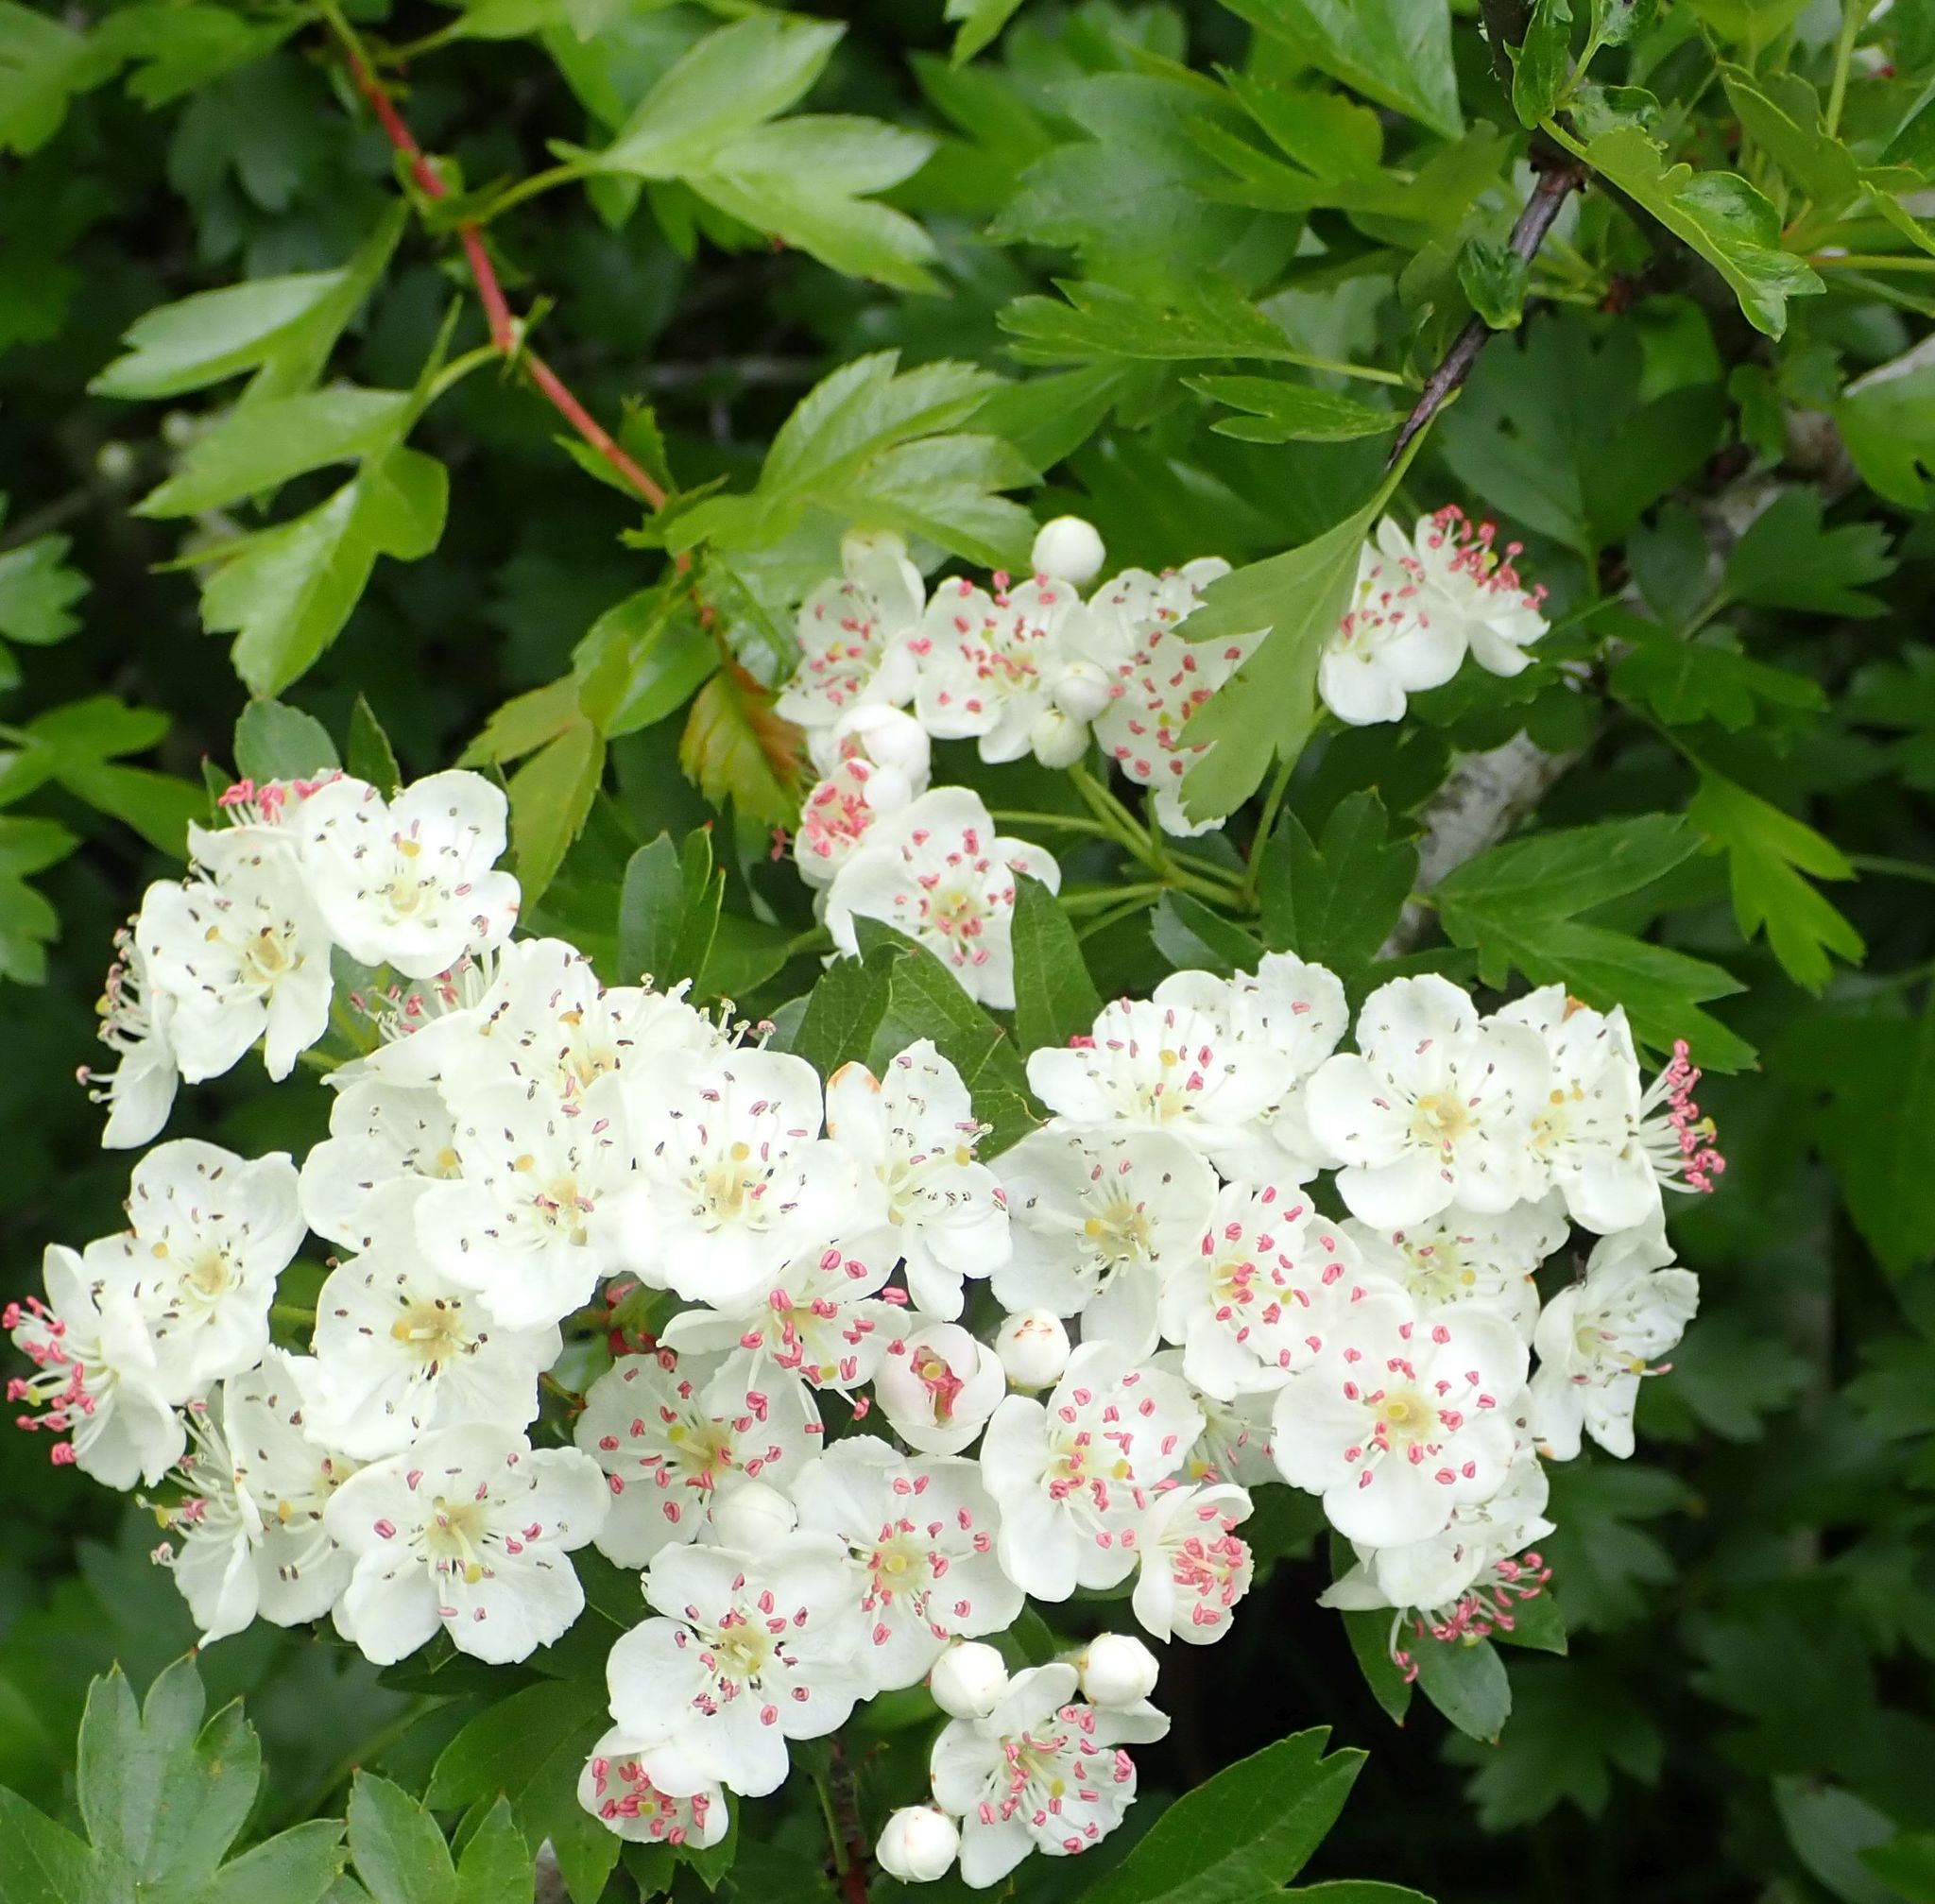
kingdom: Plantae
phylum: Tracheophyta
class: Magnoliopsida
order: Rosales
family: Rosaceae
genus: Crataegus
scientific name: Crataegus monogyna
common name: Hawthorn
